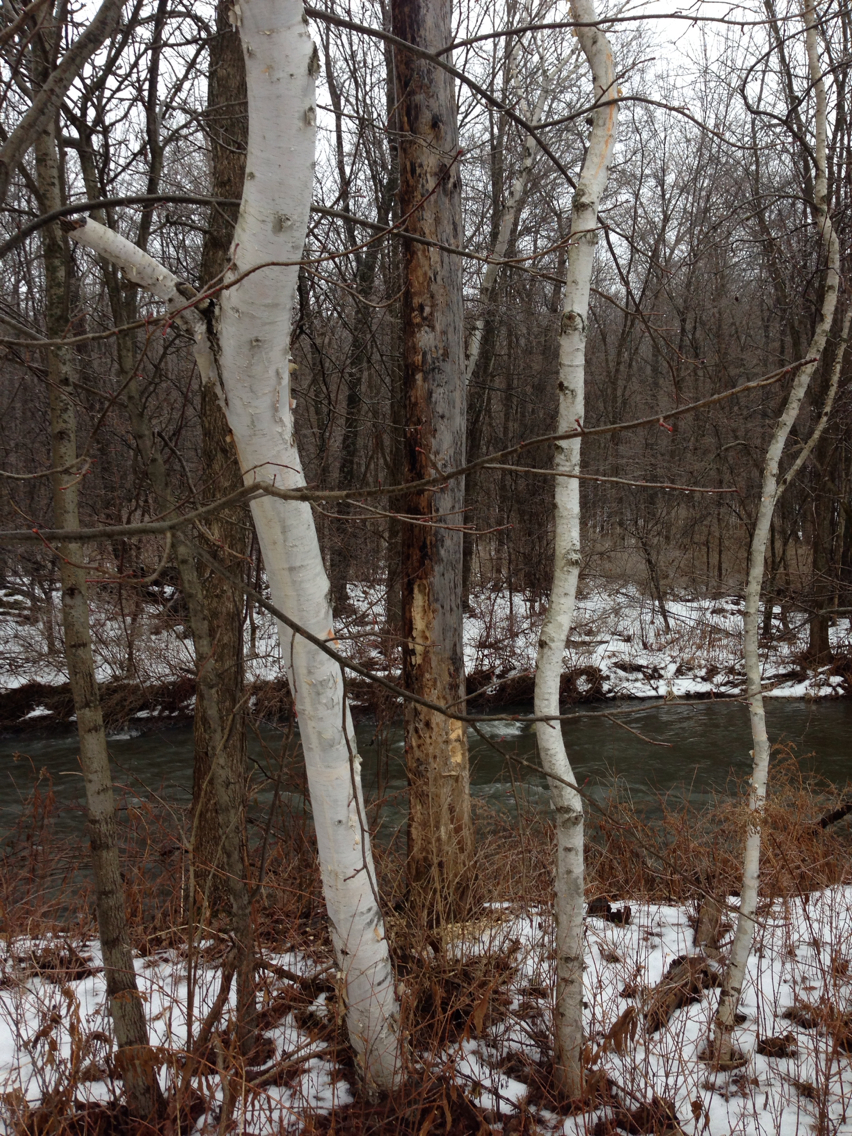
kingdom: Plantae
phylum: Tracheophyta
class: Magnoliopsida
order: Fagales
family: Betulaceae
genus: Betula
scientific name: Betula papyrifera
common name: Paper birch
